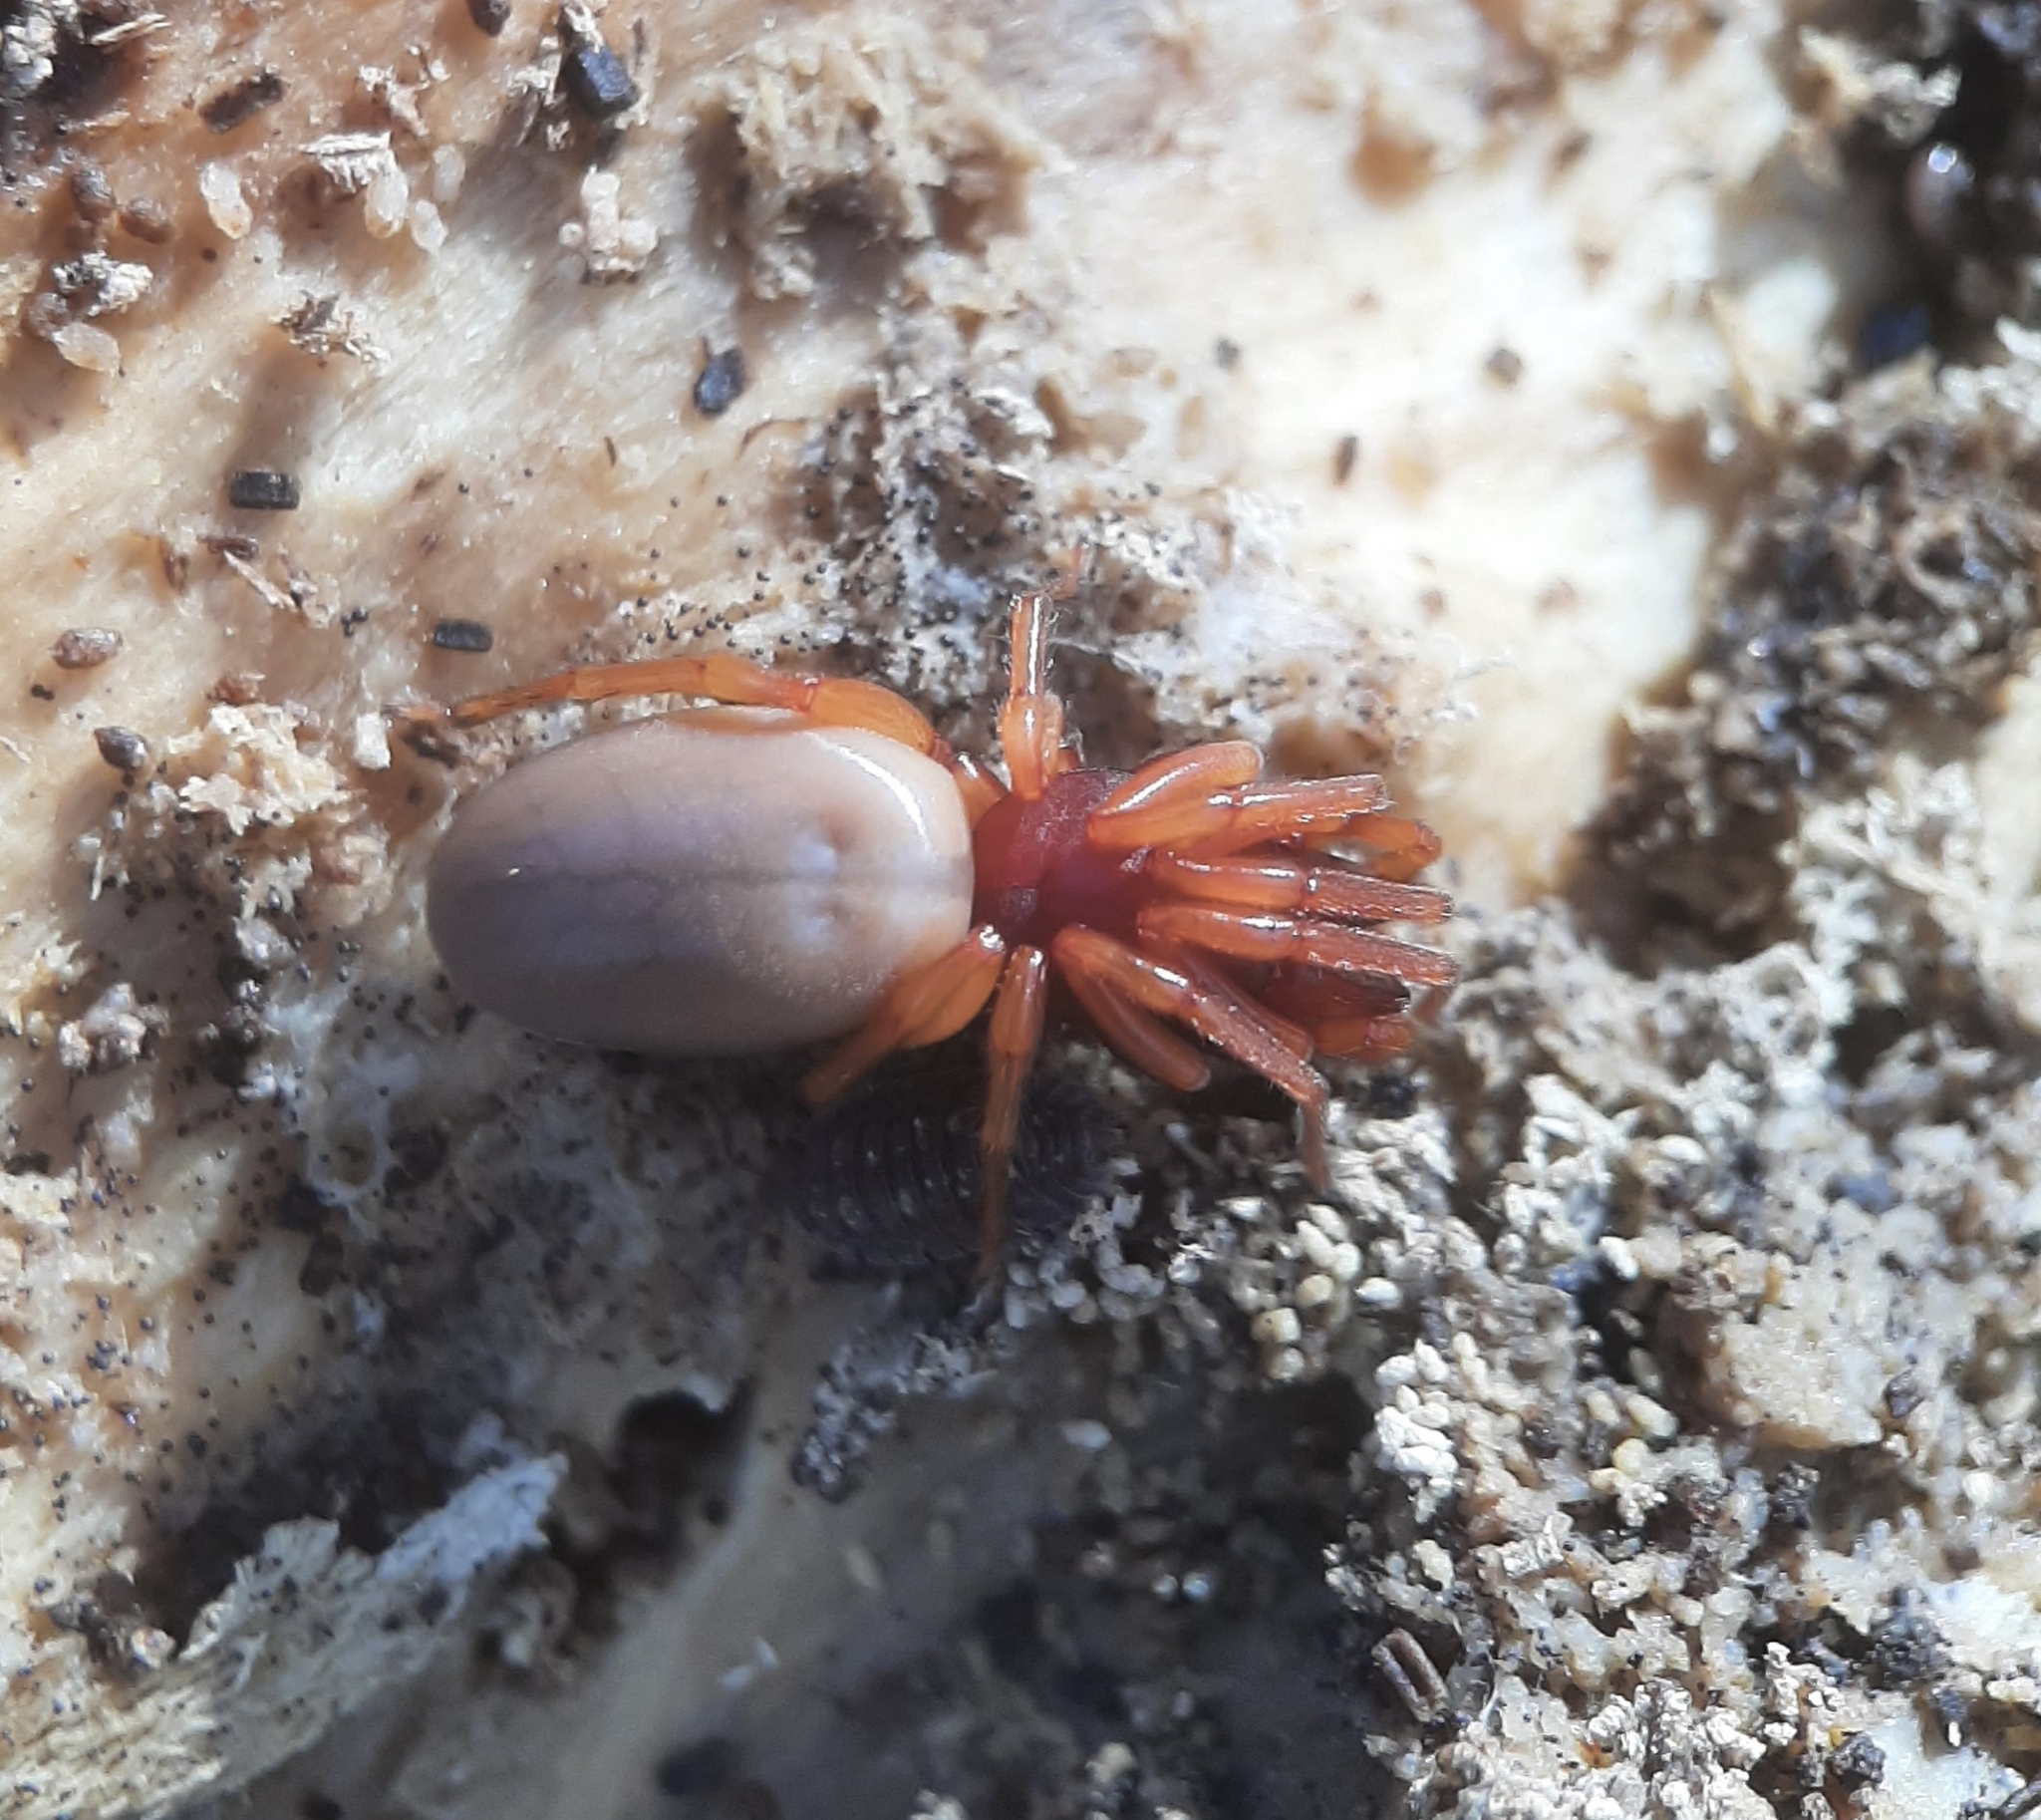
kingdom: Animalia
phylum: Arthropoda
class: Arachnida
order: Araneae
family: Dysderidae
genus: Dysdera
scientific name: Dysdera crocata
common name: Woodlouse spider
